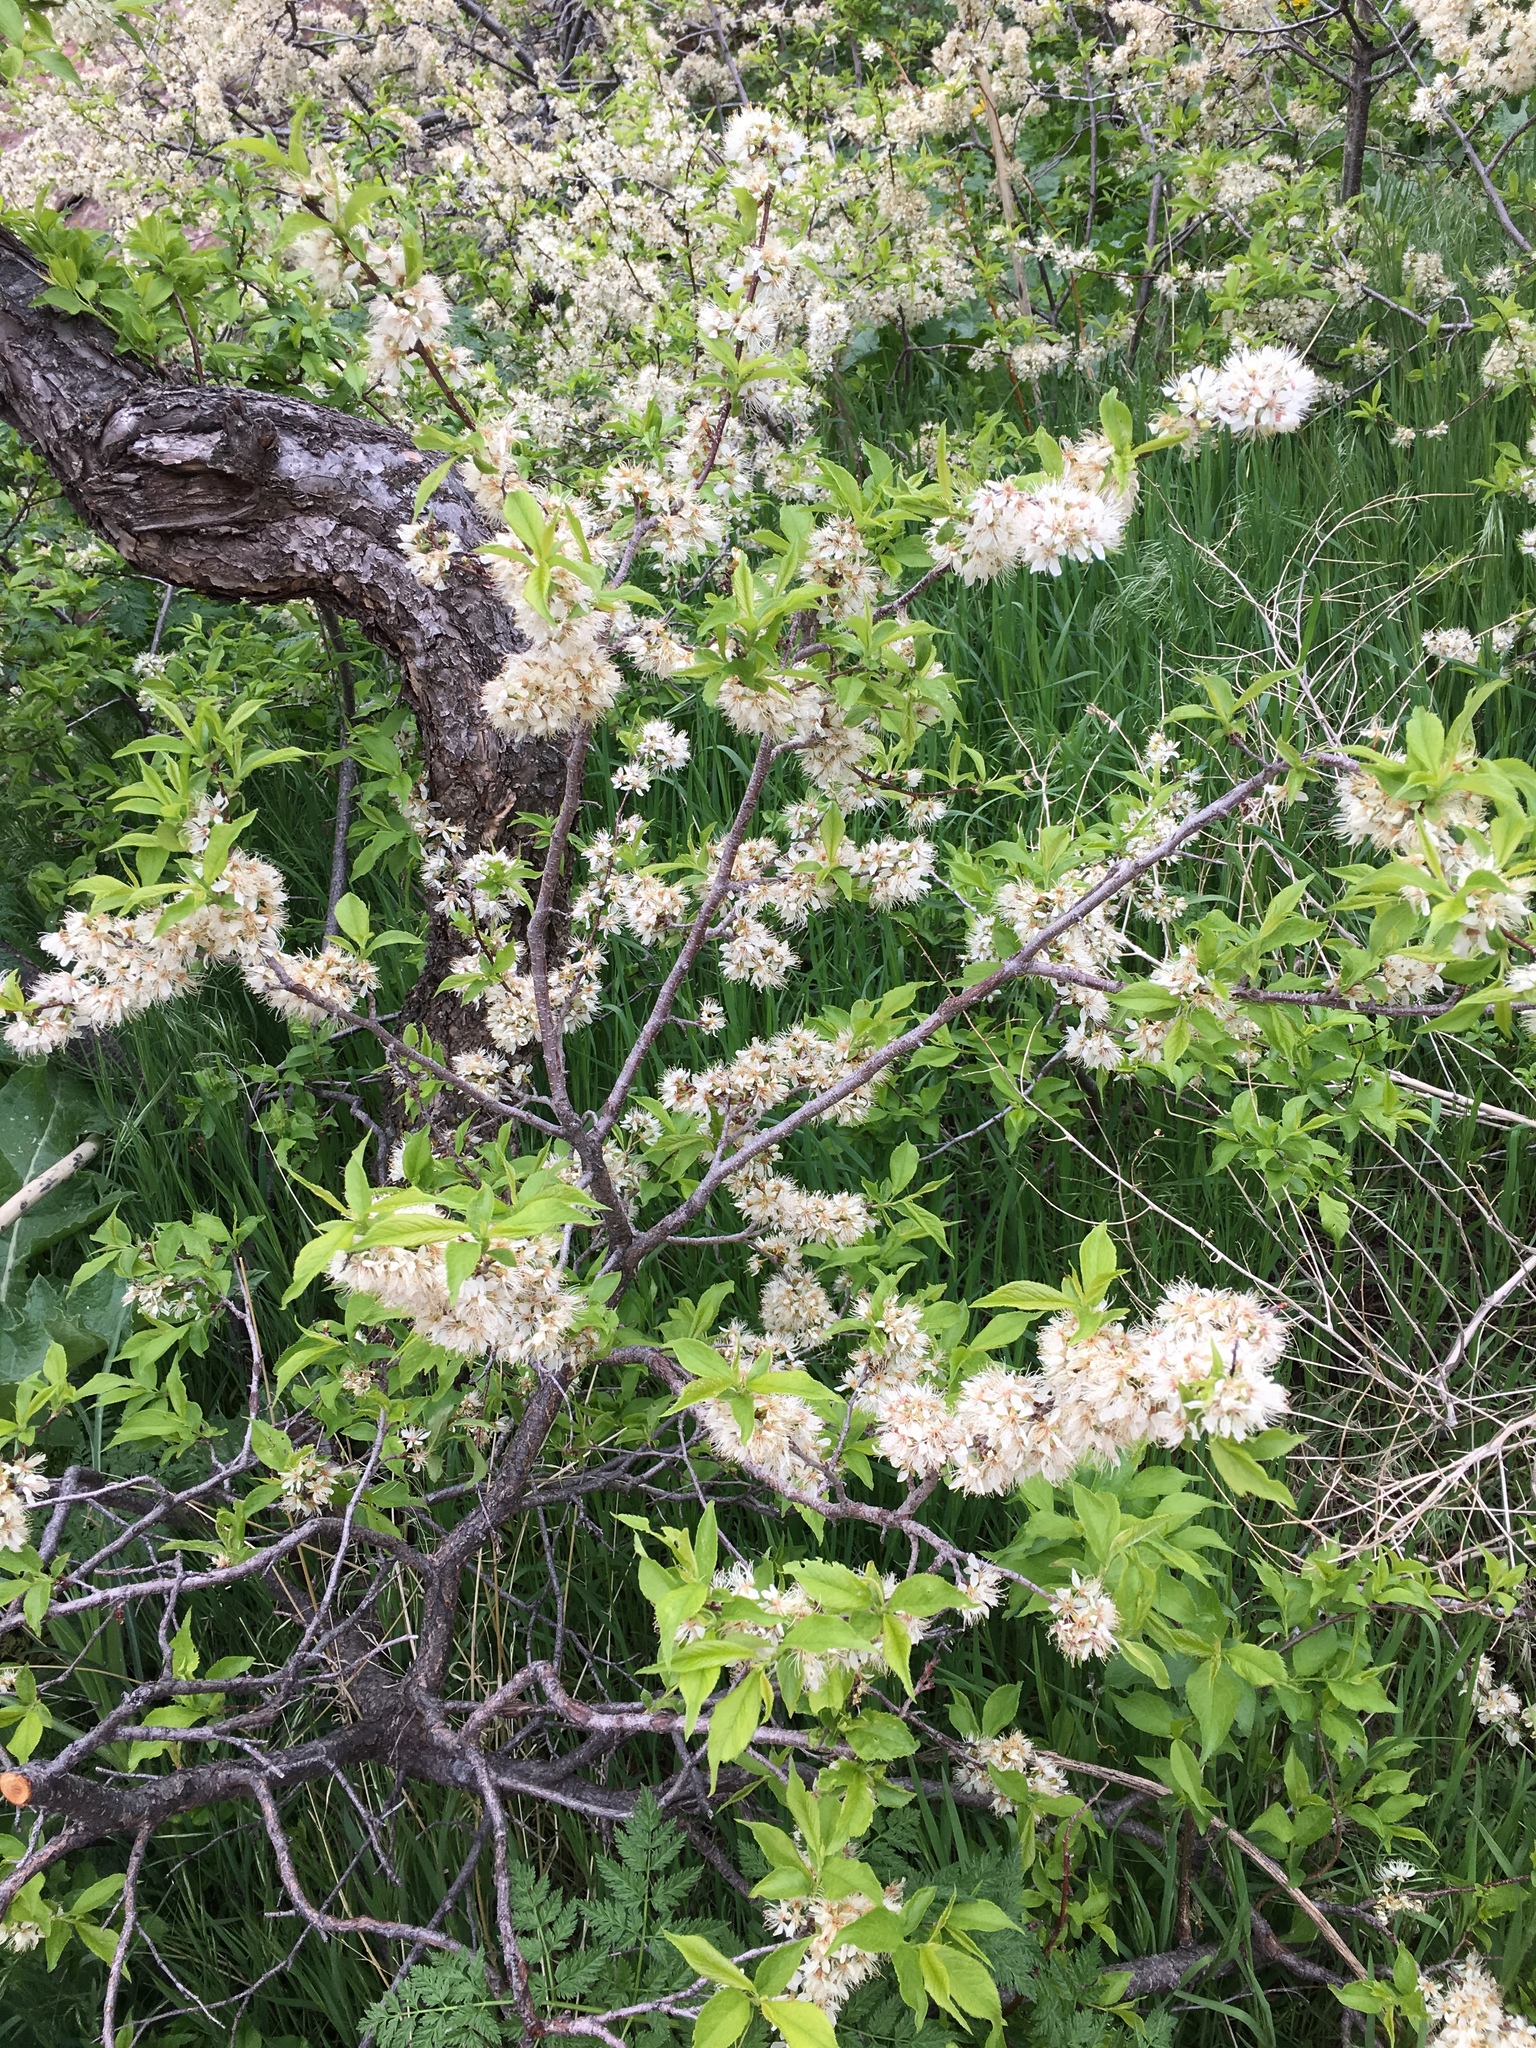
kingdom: Plantae
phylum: Tracheophyta
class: Magnoliopsida
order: Rosales
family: Rosaceae
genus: Prunus
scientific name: Prunus americana
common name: American plum
